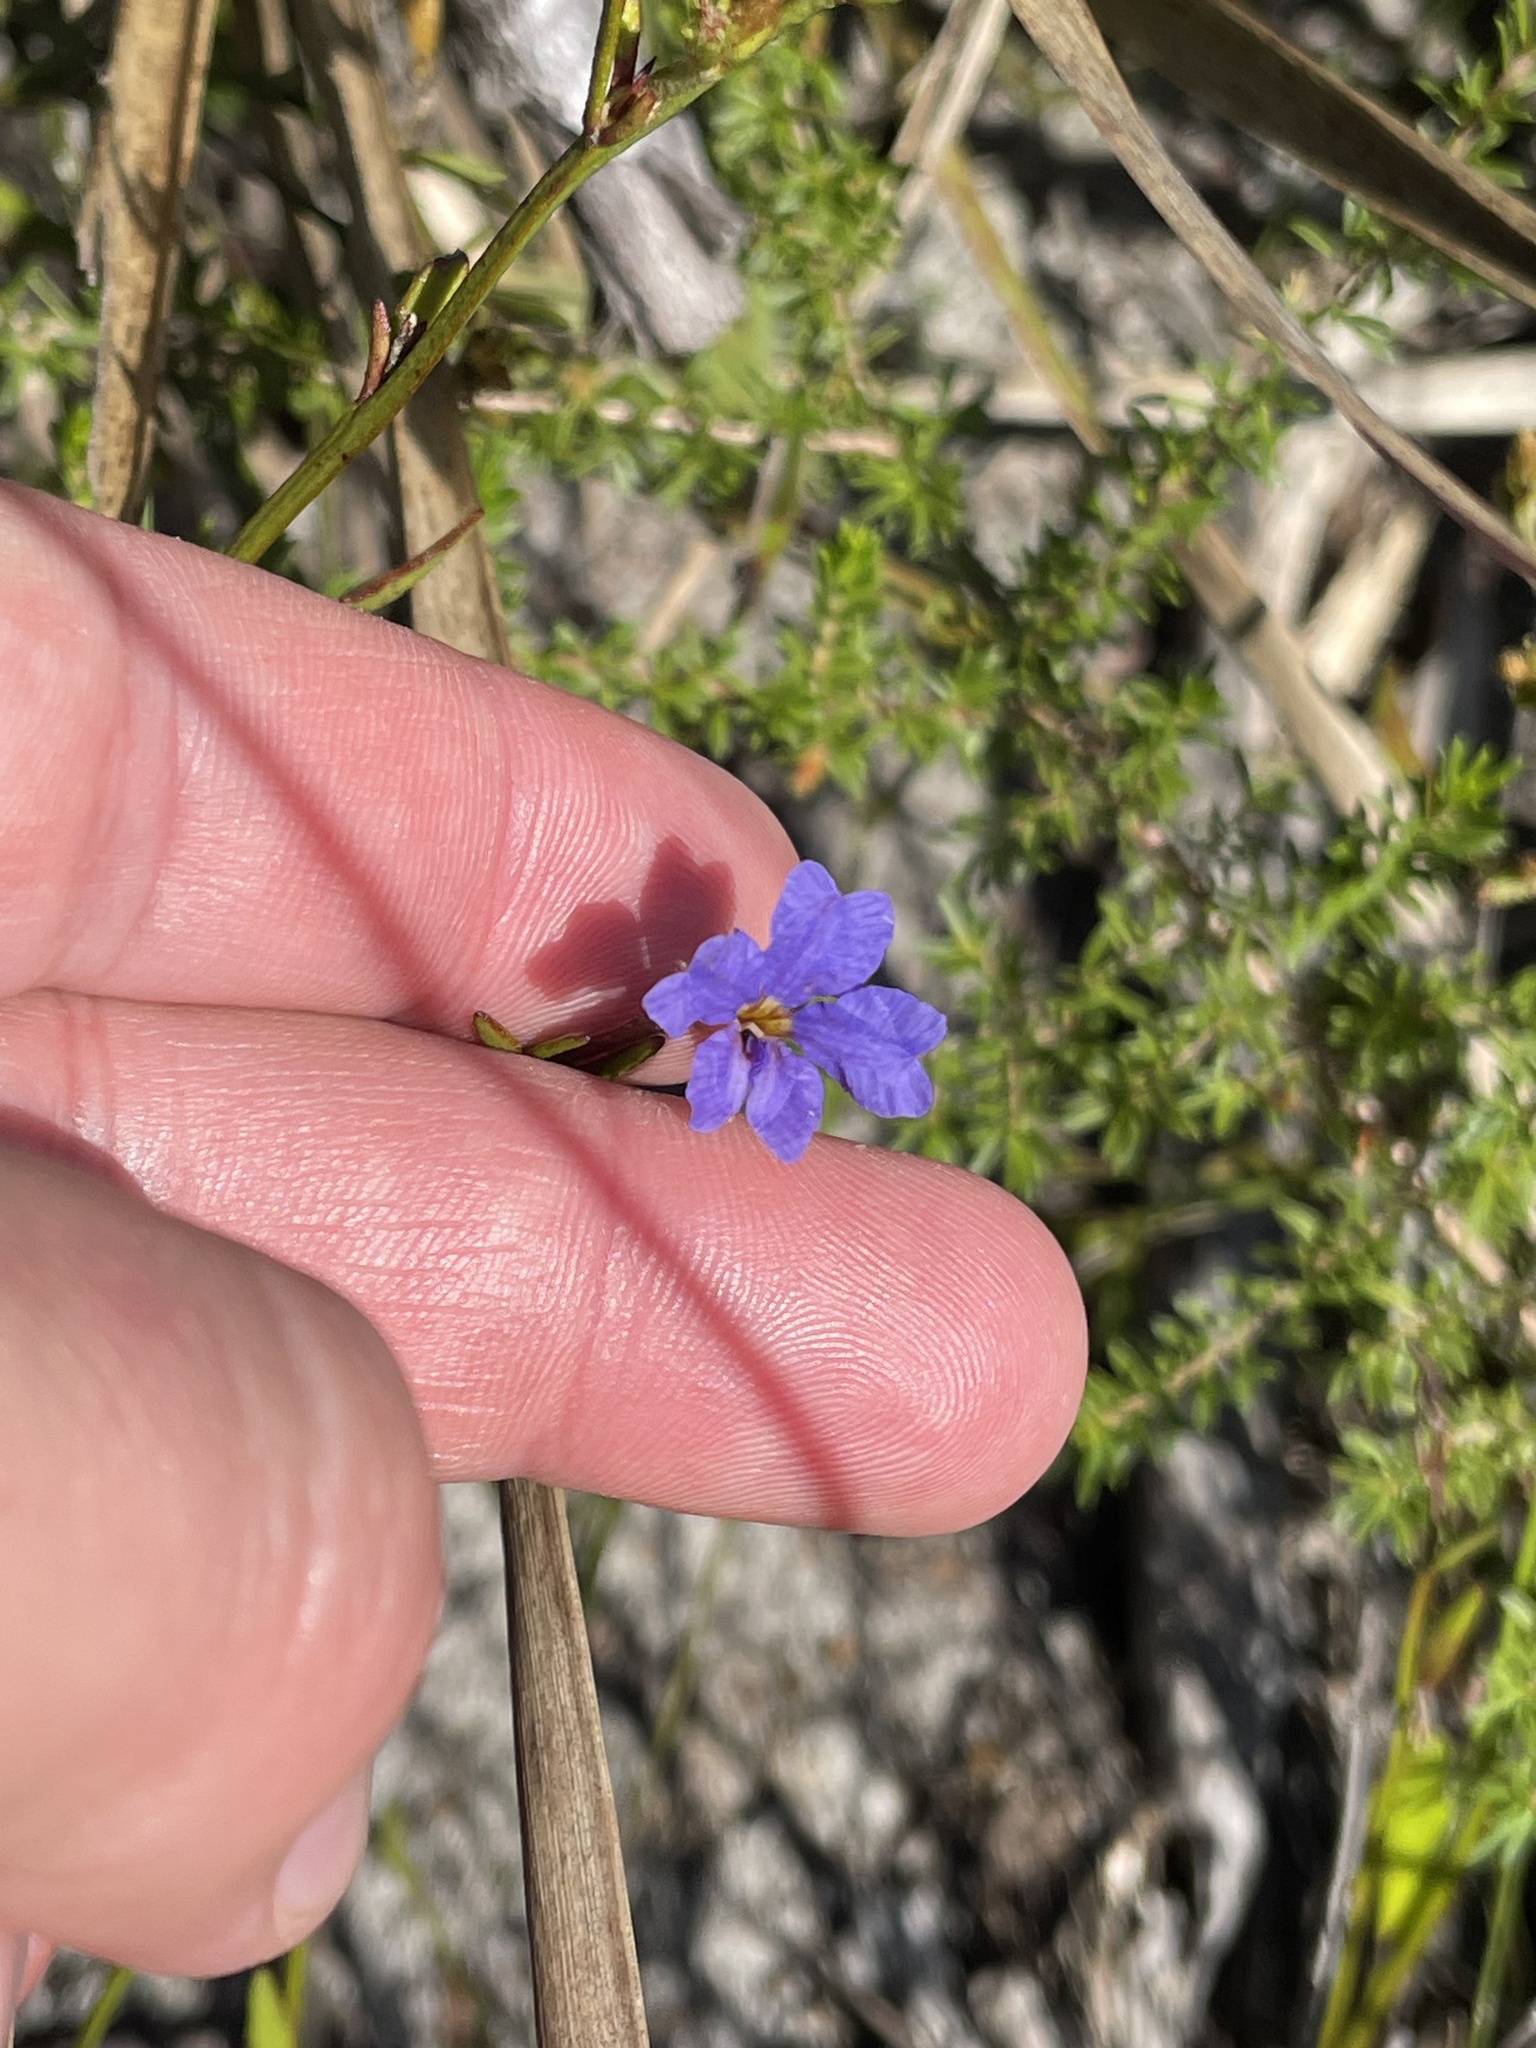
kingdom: Plantae
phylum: Tracheophyta
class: Magnoliopsida
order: Asterales
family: Goodeniaceae
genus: Dampiera
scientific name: Dampiera stricta
